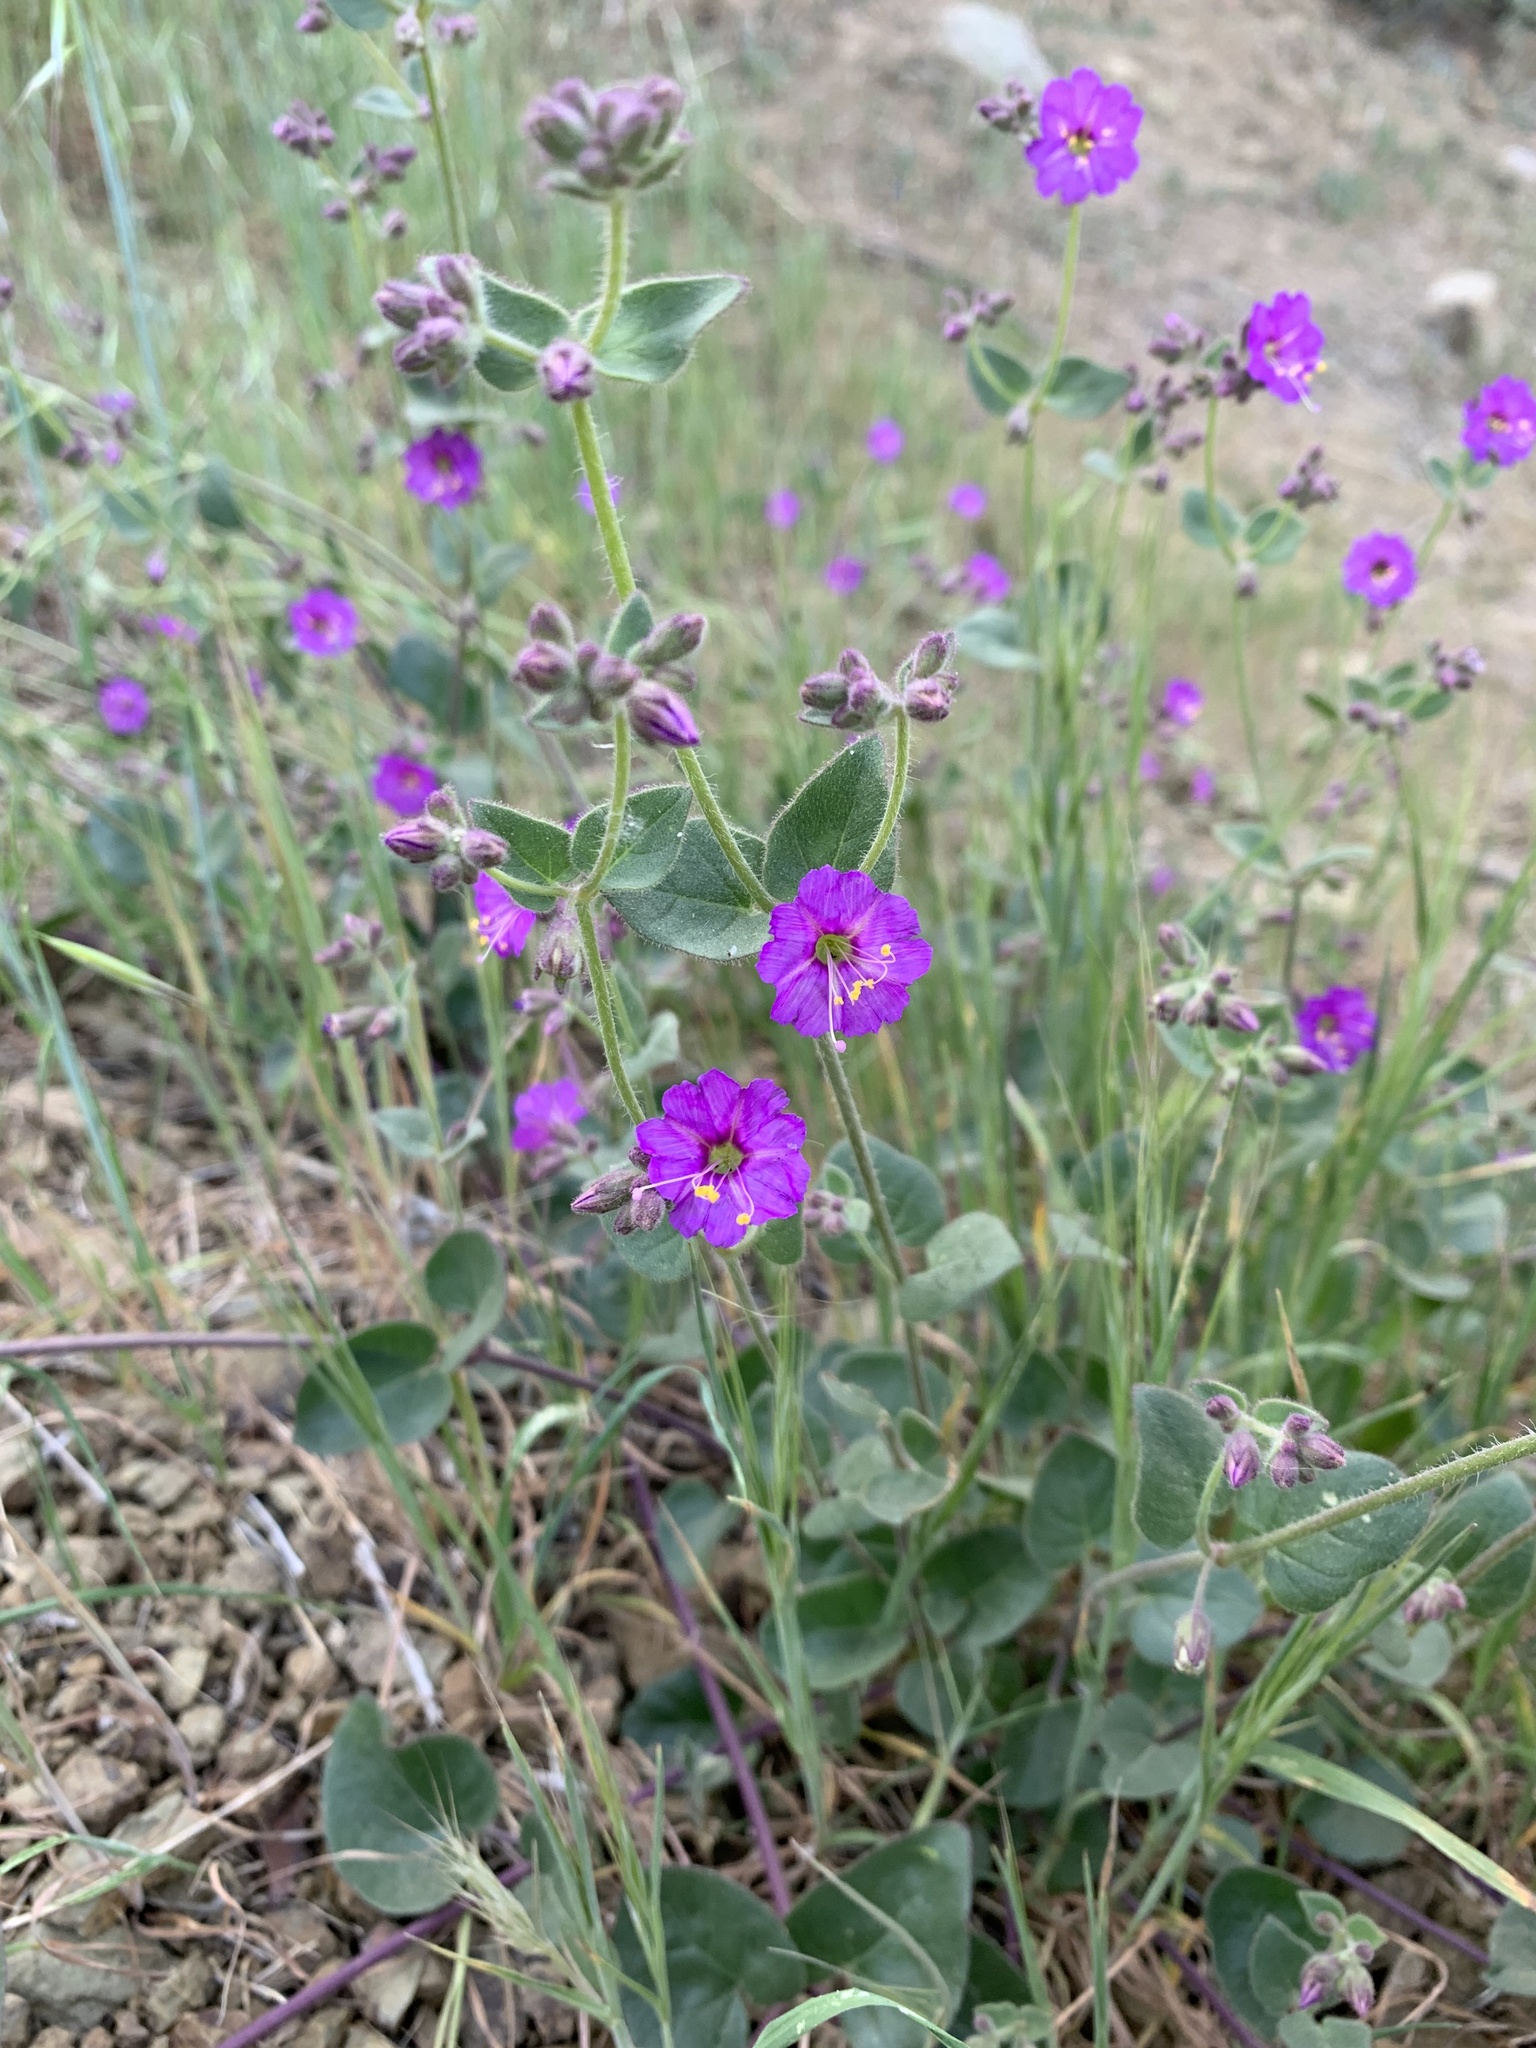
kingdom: Plantae
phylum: Tracheophyta
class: Magnoliopsida
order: Caryophyllales
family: Nyctaginaceae
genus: Mirabilis
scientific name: Mirabilis laevis
